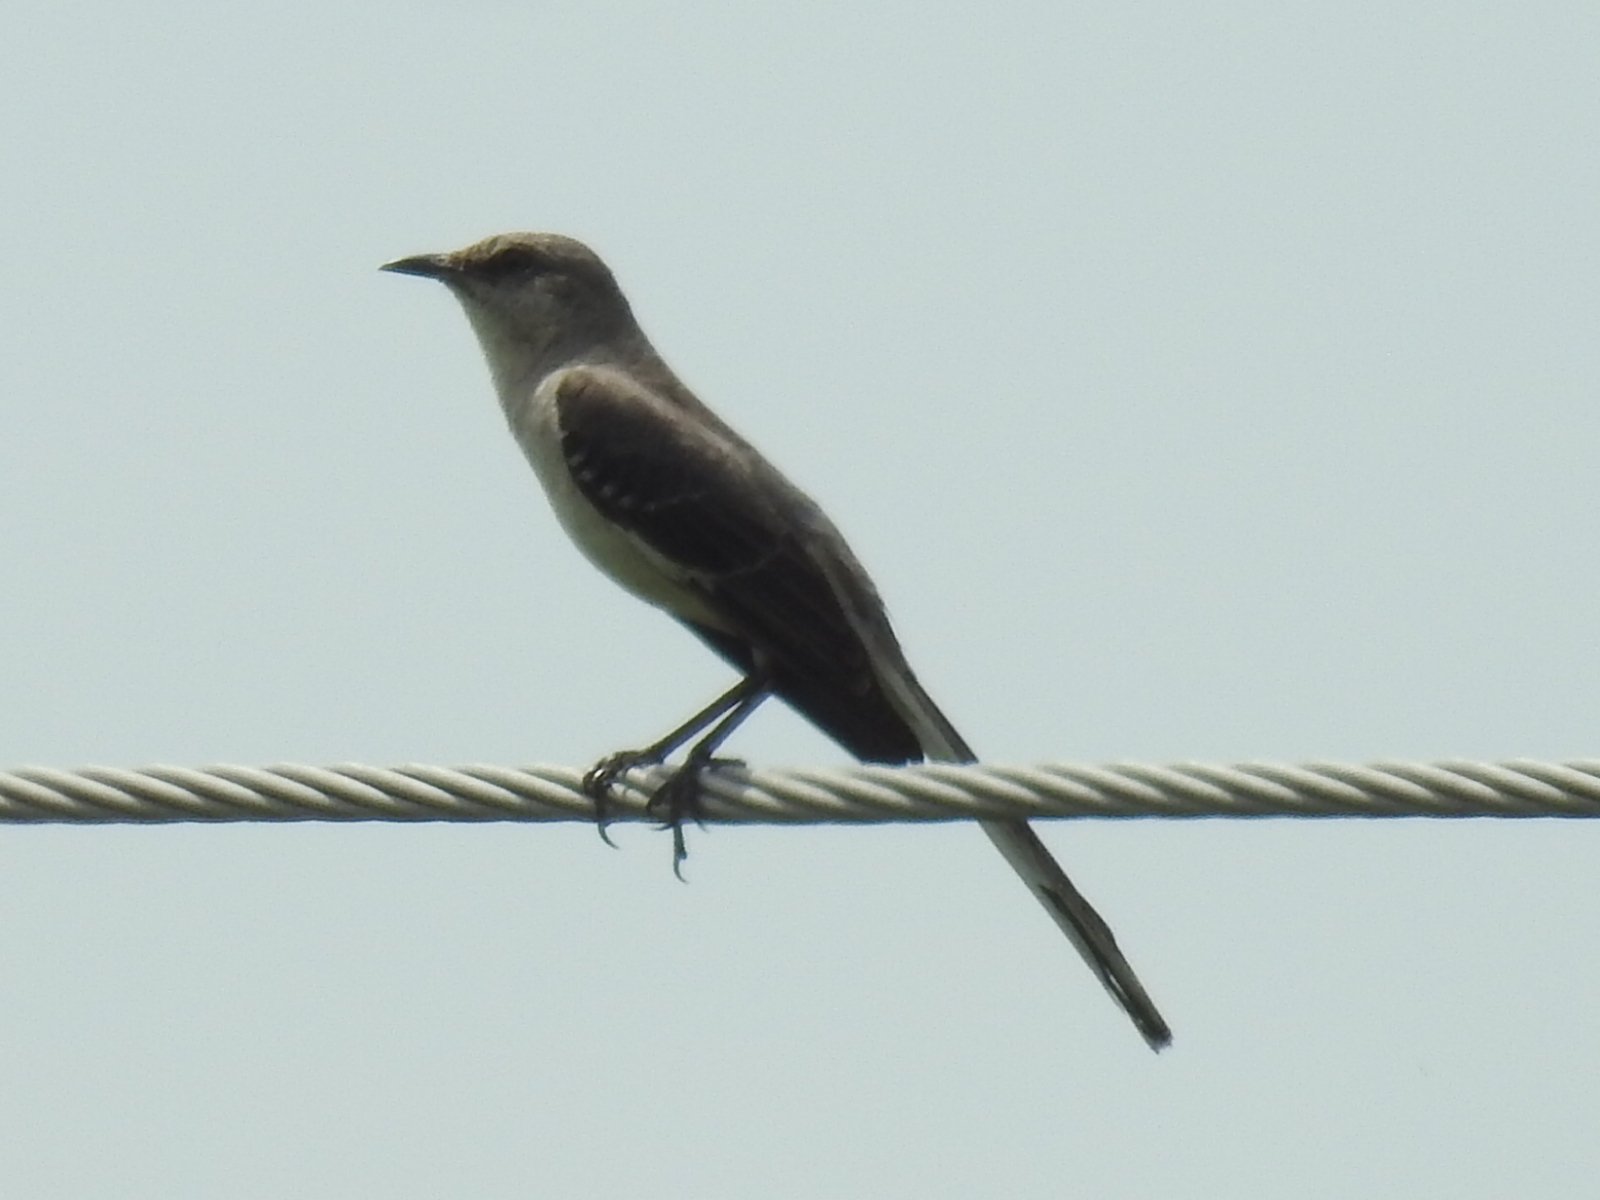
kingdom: Animalia
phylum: Chordata
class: Aves
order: Passeriformes
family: Mimidae
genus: Mimus
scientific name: Mimus polyglottos
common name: Northern mockingbird
